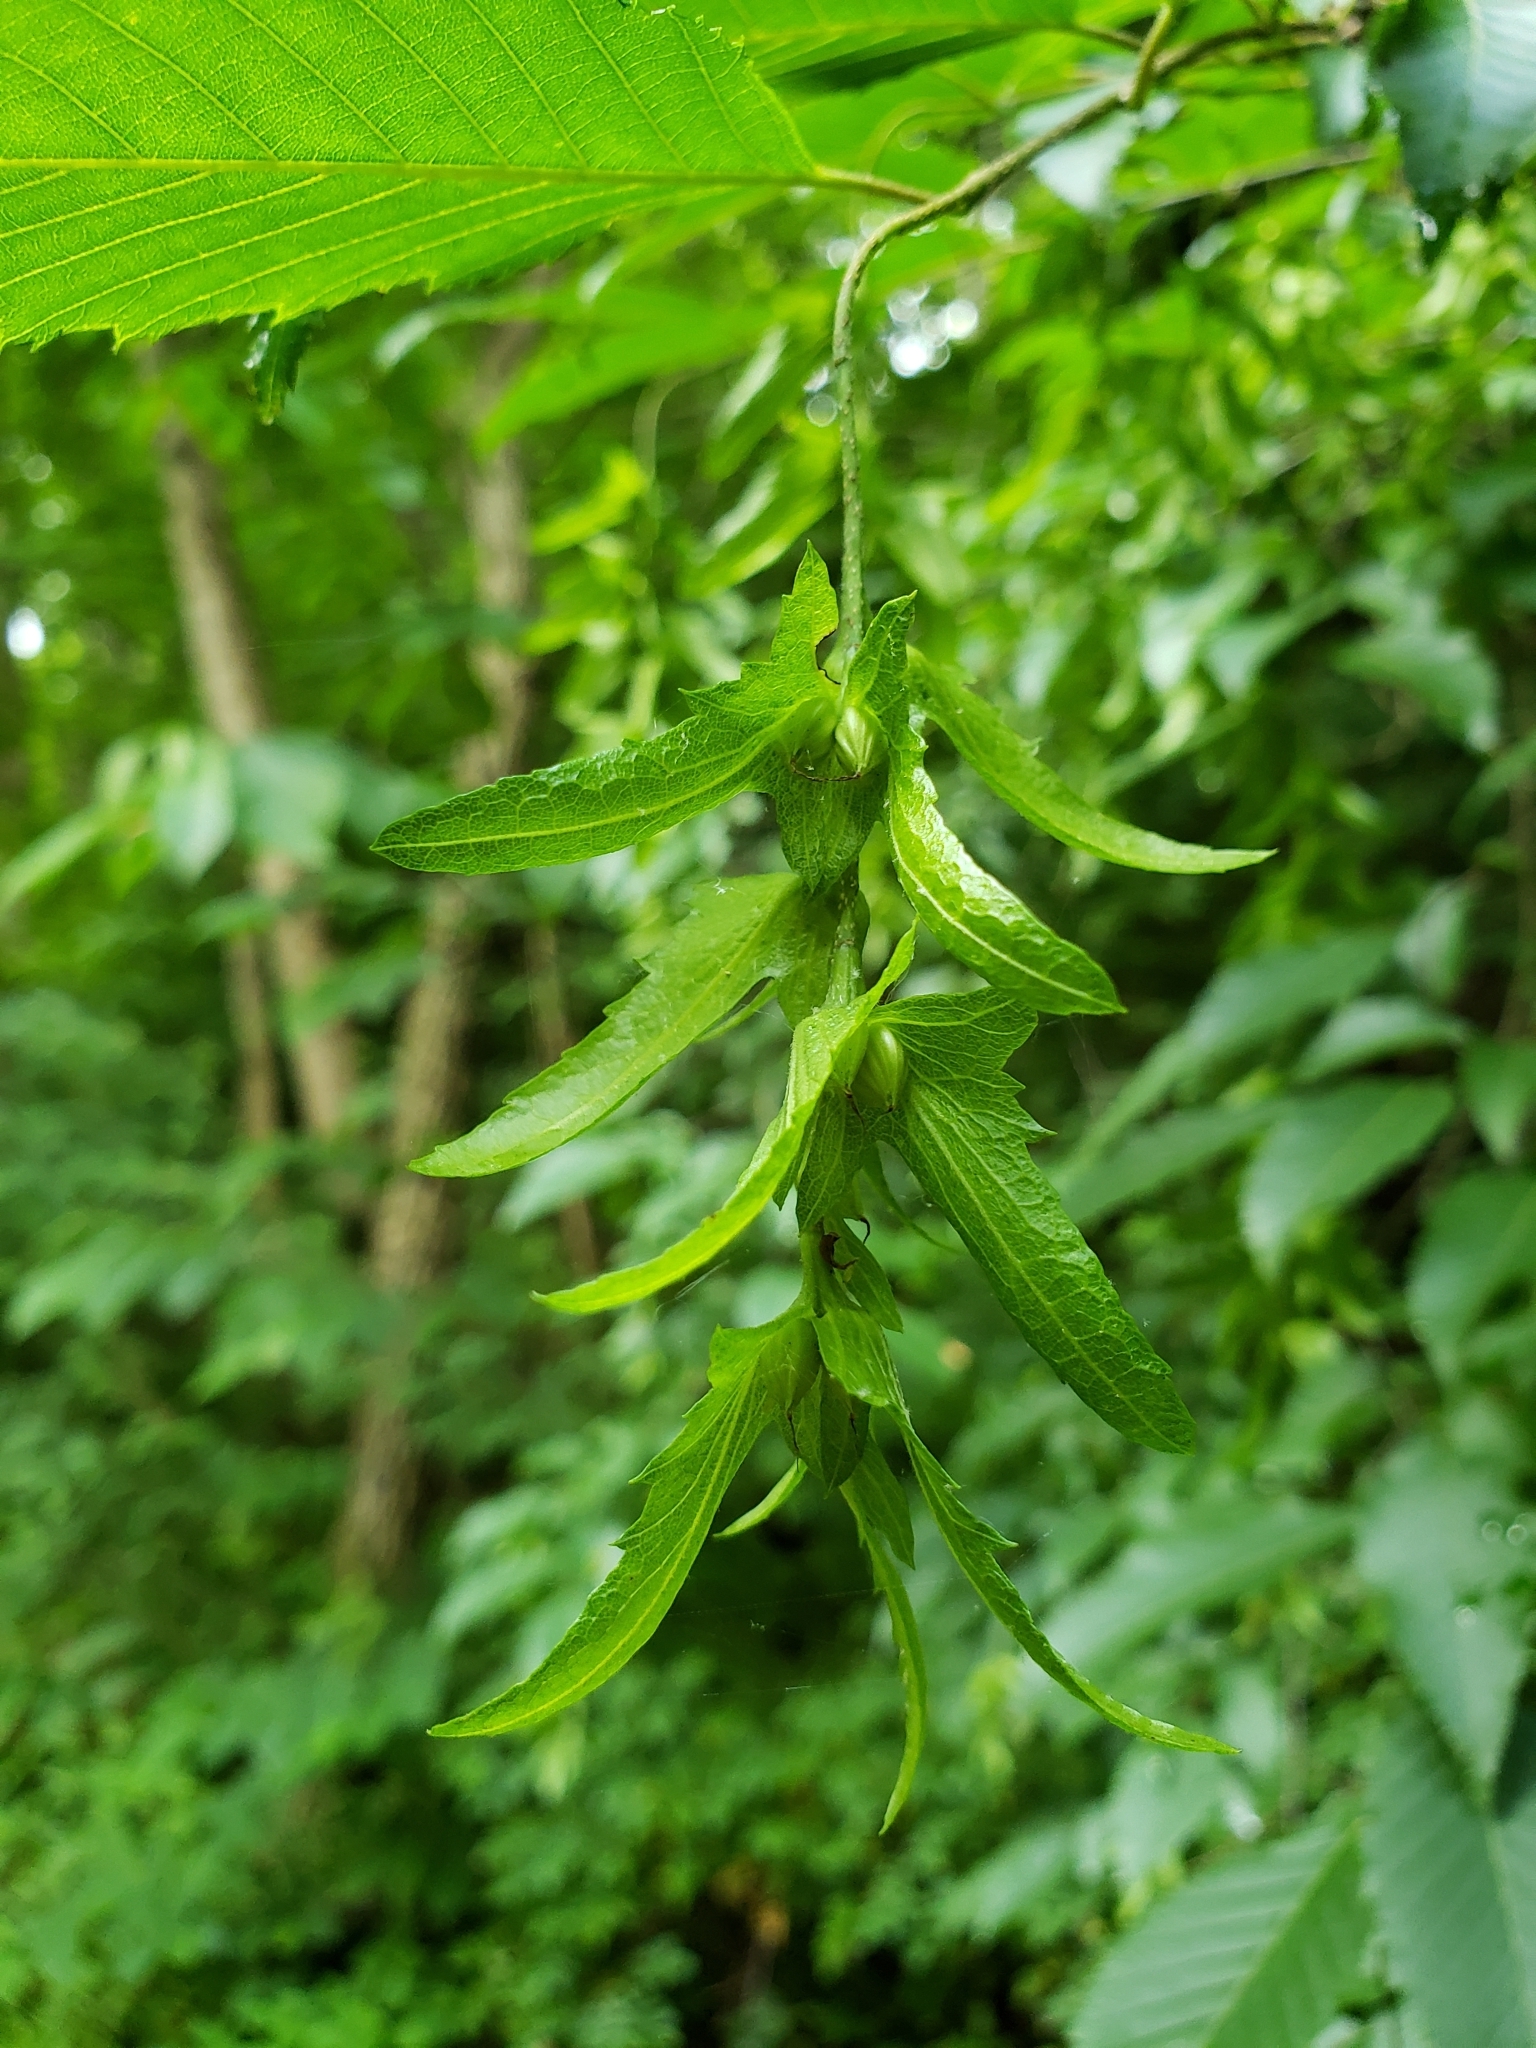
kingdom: Plantae
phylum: Tracheophyta
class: Magnoliopsida
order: Fagales
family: Betulaceae
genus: Carpinus
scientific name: Carpinus caroliniana
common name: American hornbeam
